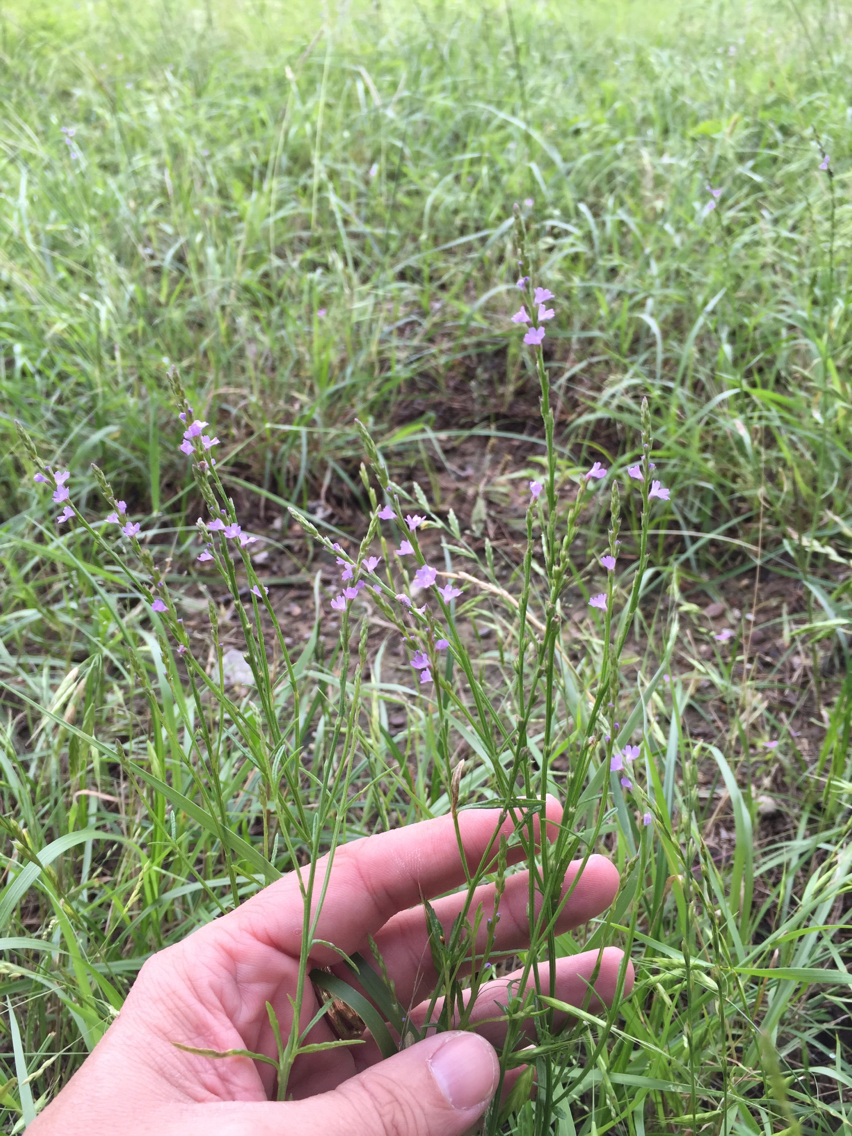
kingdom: Plantae
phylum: Tracheophyta
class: Magnoliopsida
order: Lamiales
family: Verbenaceae
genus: Verbena
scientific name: Verbena halei
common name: Texas vervain
